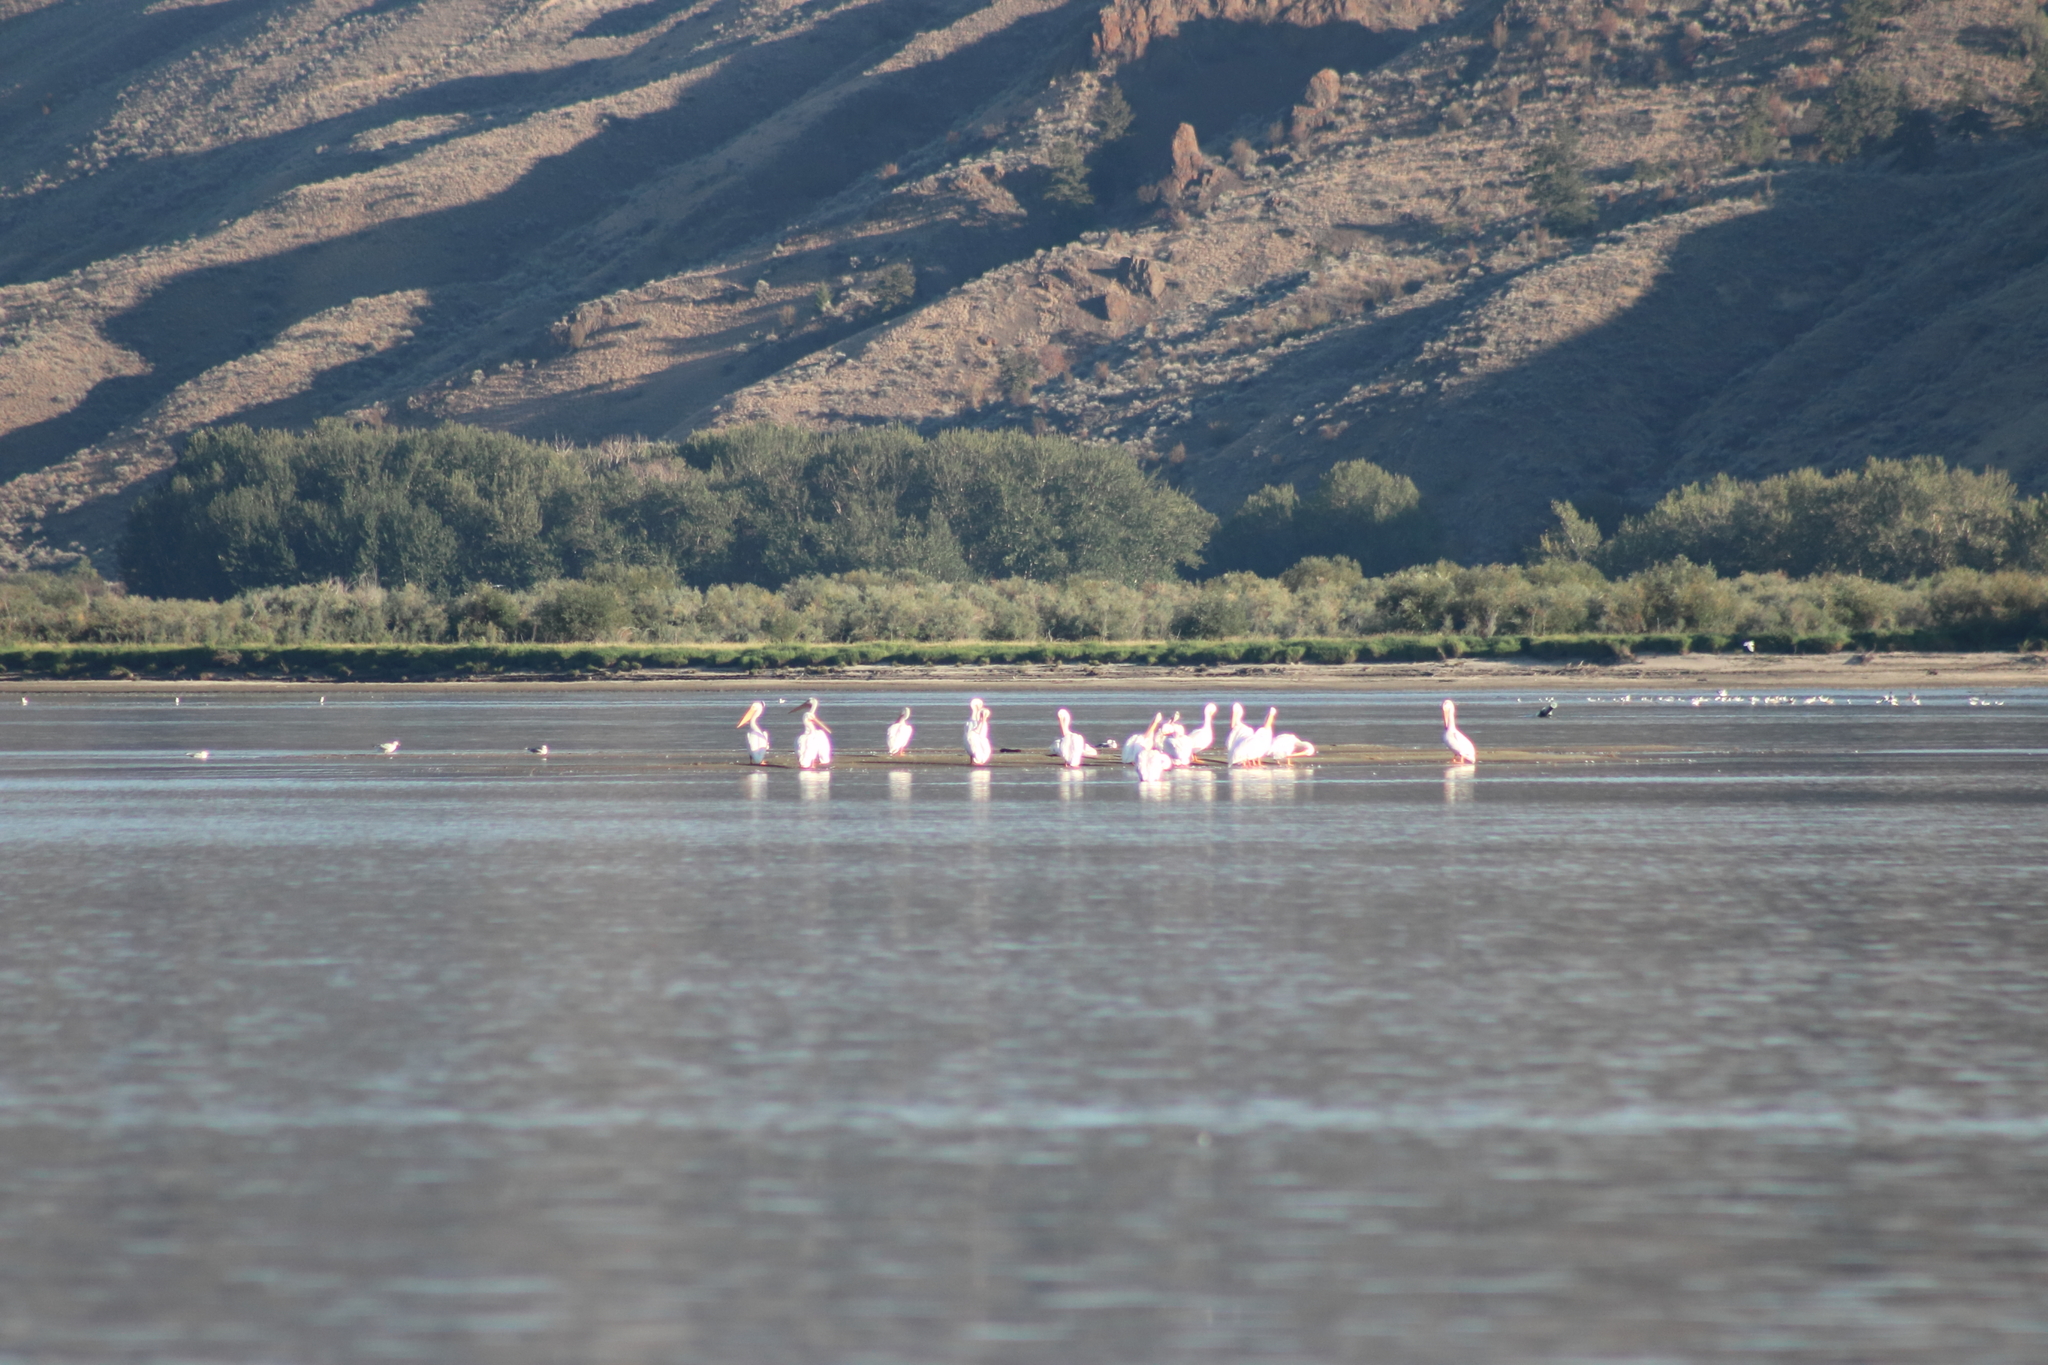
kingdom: Animalia
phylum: Chordata
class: Aves
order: Pelecaniformes
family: Pelecanidae
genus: Pelecanus
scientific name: Pelecanus erythrorhynchos
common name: American white pelican
